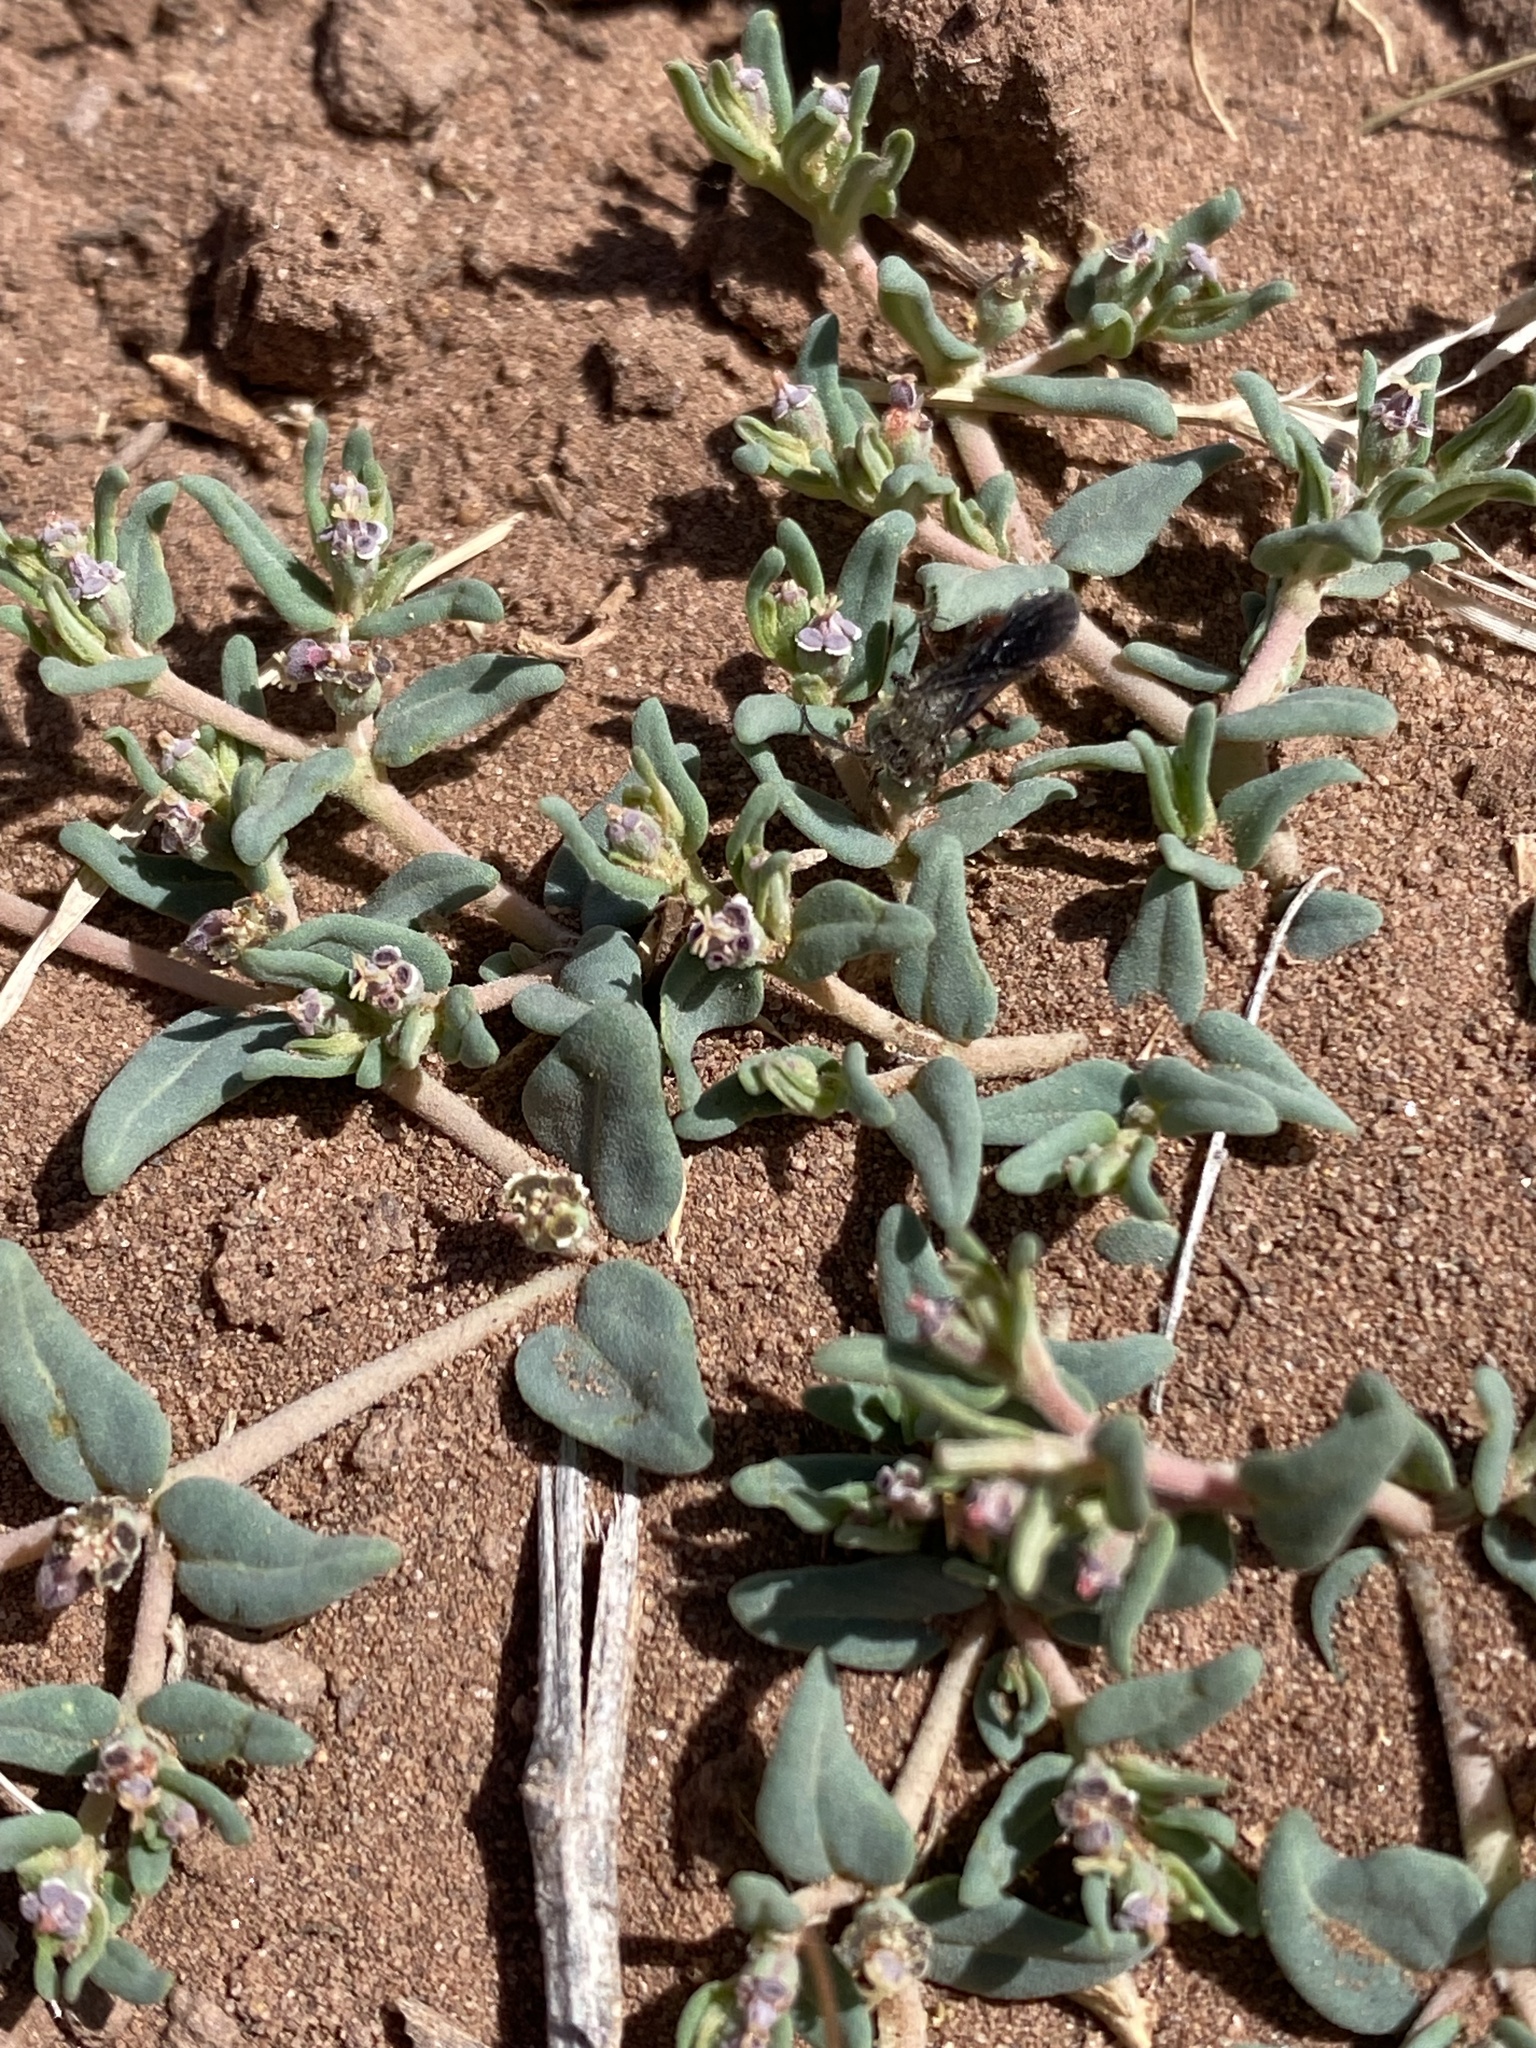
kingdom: Plantae
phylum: Tracheophyta
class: Magnoliopsida
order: Malpighiales
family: Euphorbiaceae
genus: Euphorbia
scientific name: Euphorbia lata
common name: Hoary euphorbia
